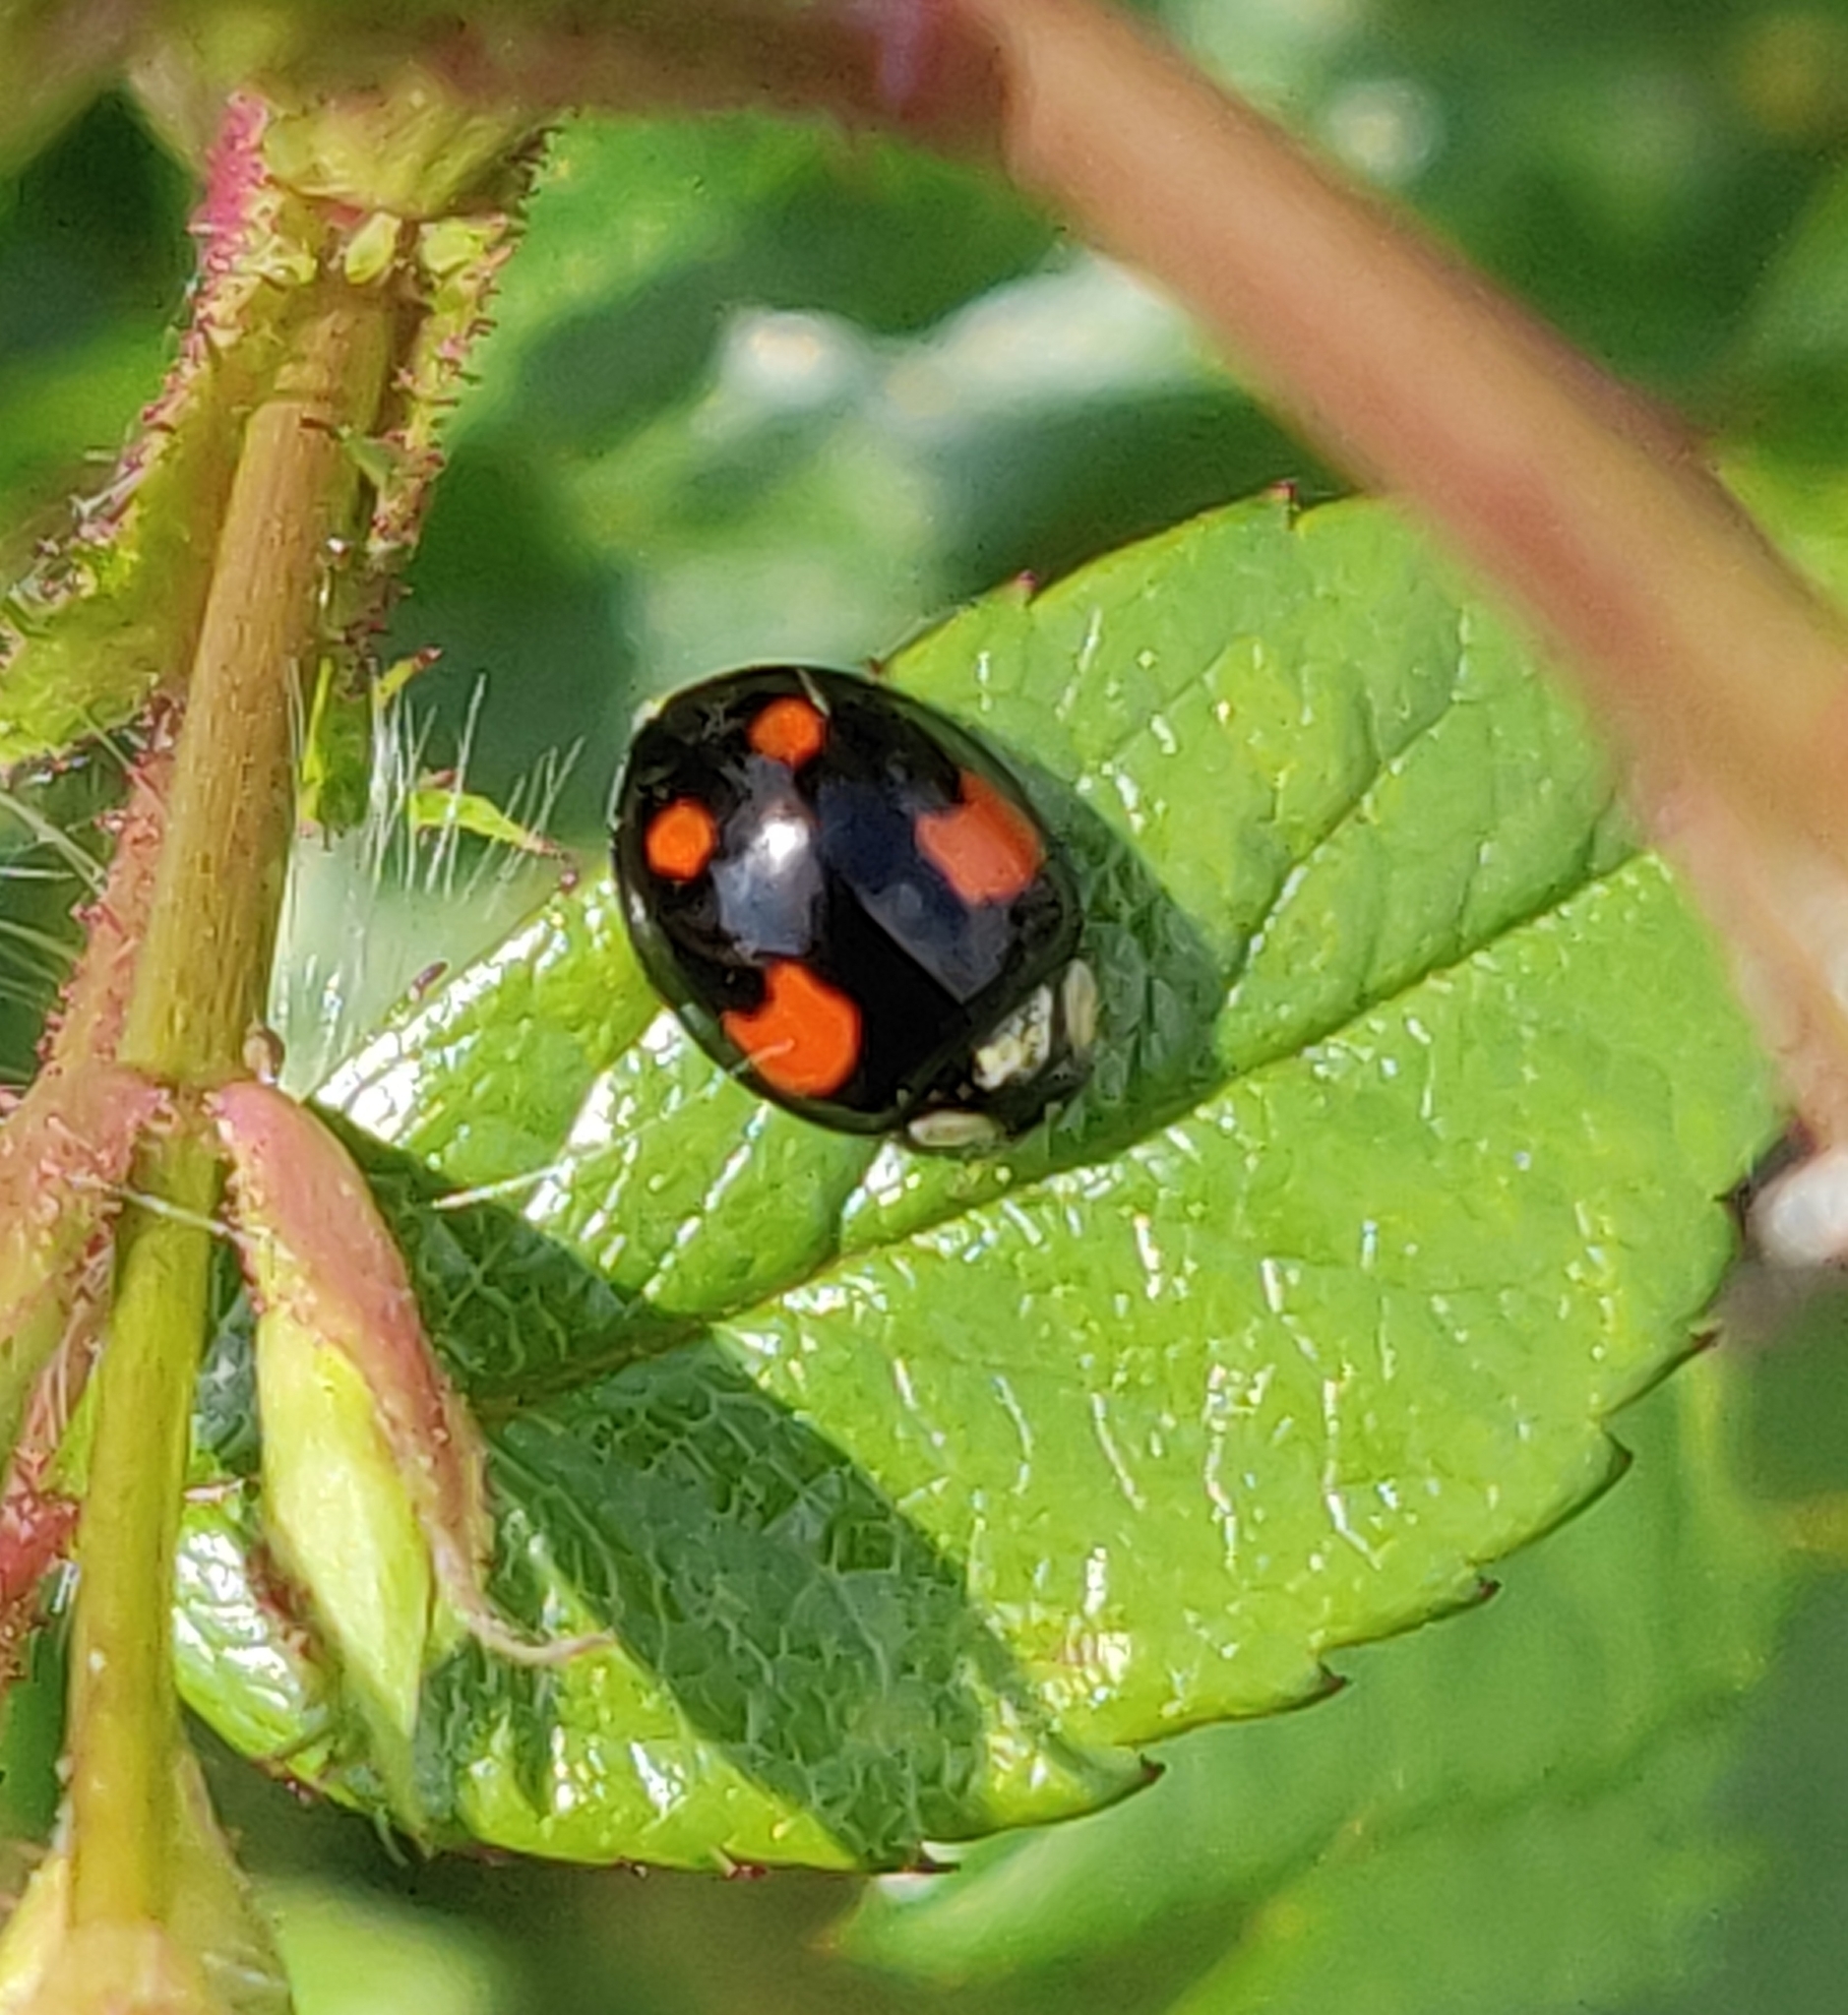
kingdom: Animalia
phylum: Arthropoda
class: Insecta
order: Coleoptera
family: Coccinellidae
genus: Harmonia
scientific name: Harmonia axyridis
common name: Harlequin ladybird
